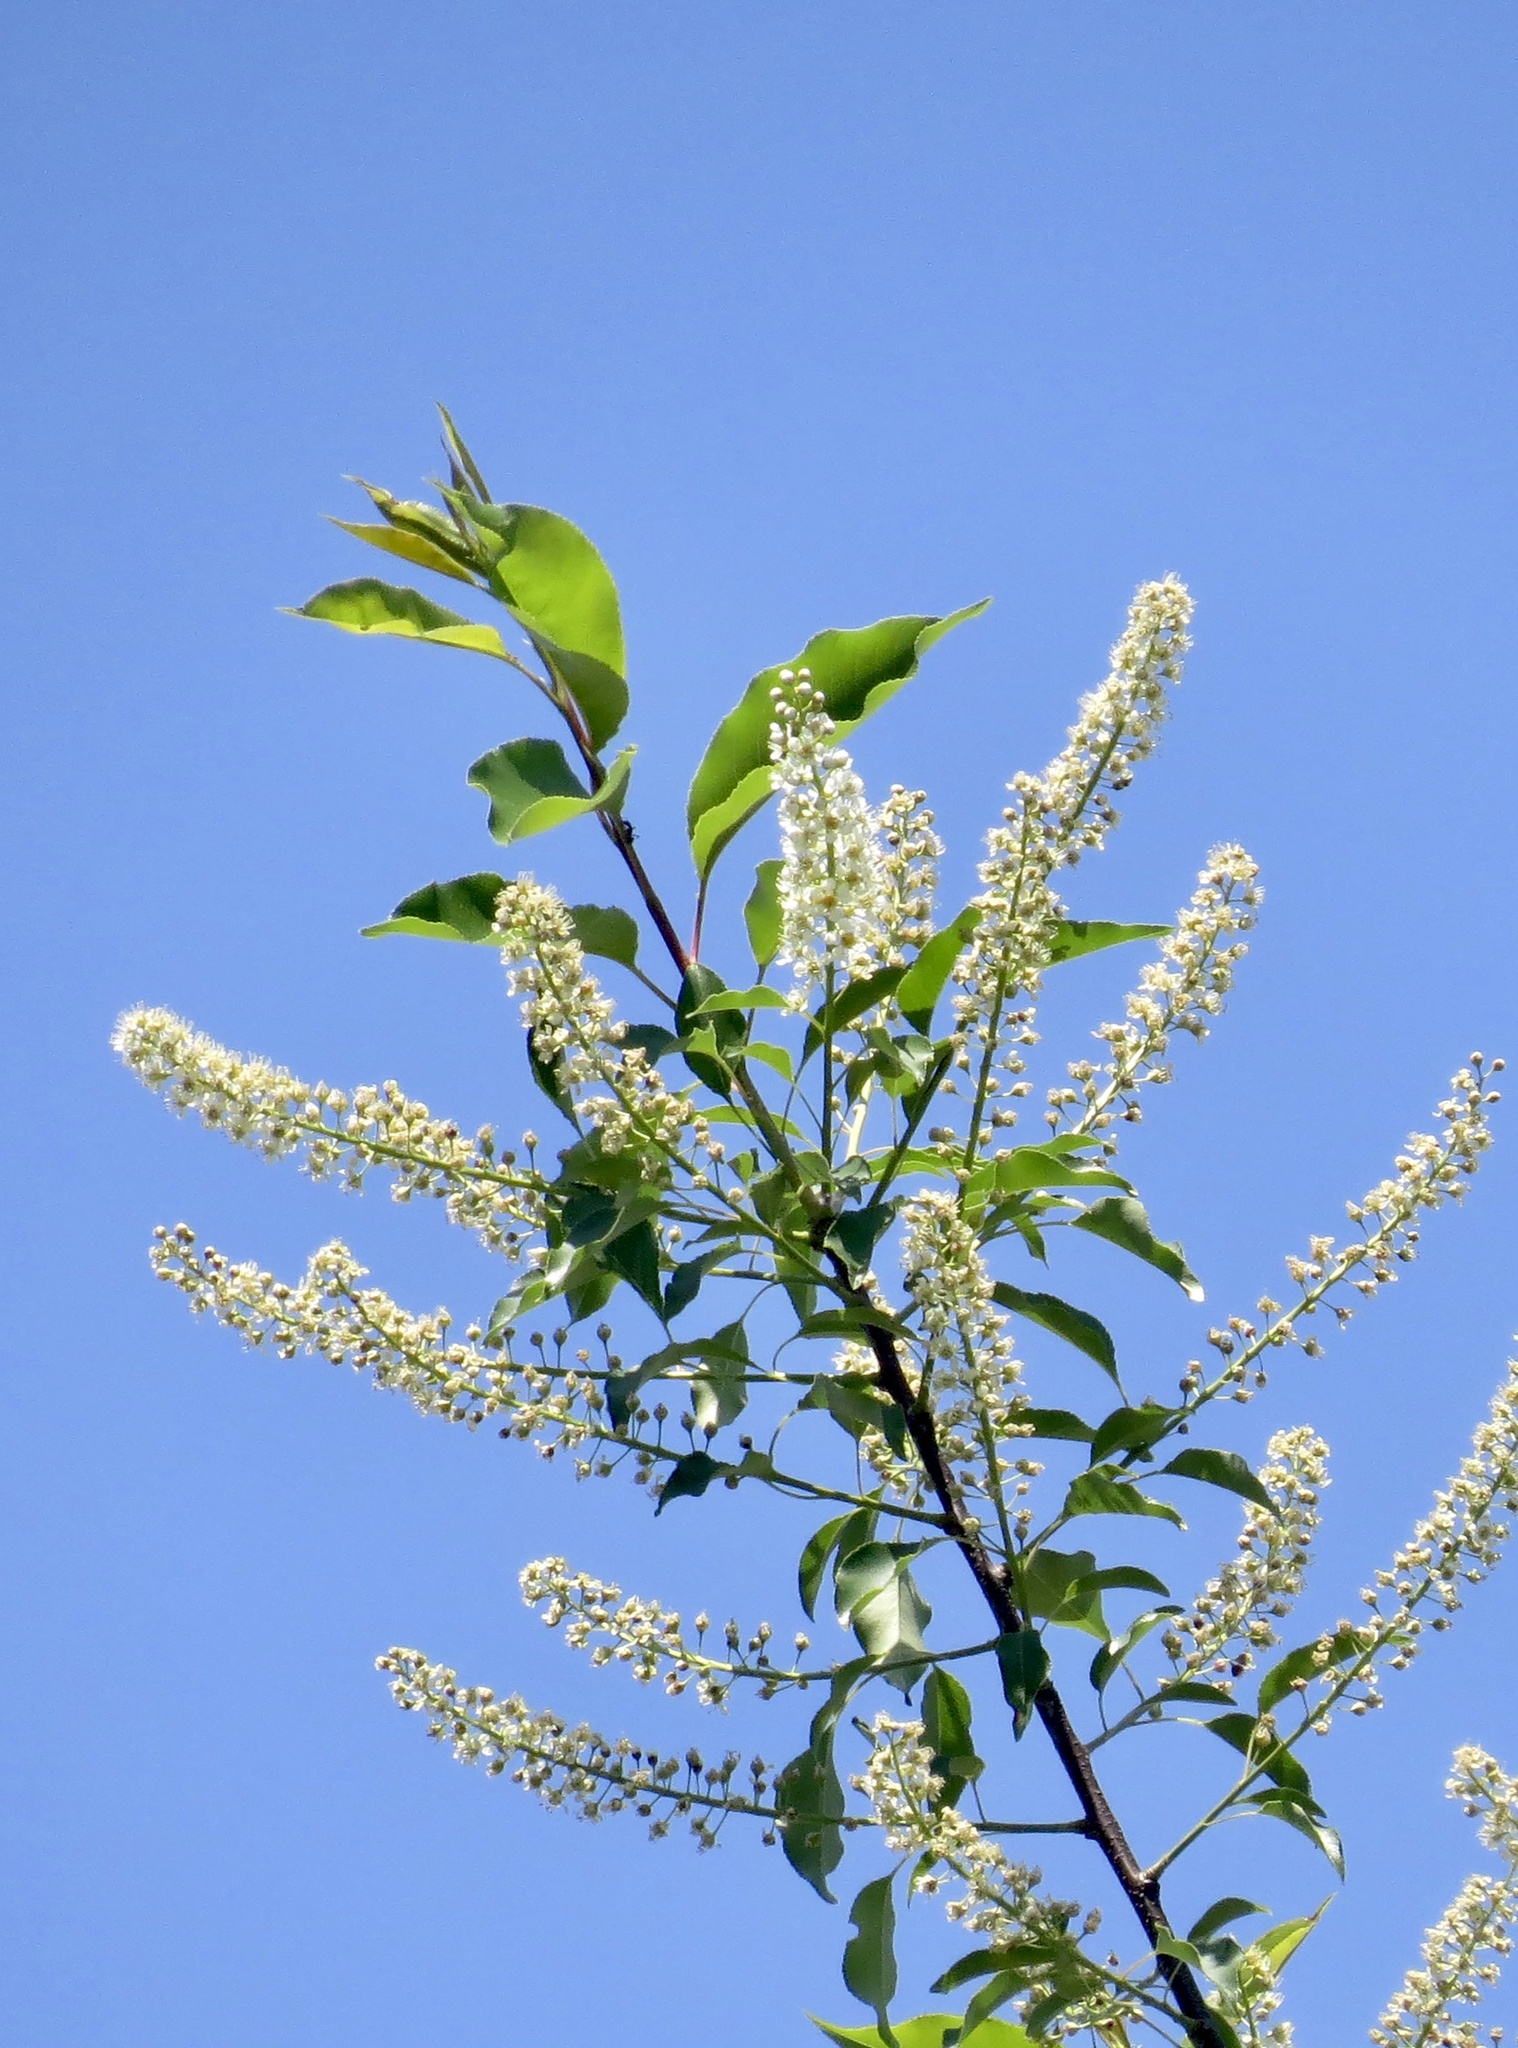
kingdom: Plantae
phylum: Tracheophyta
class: Magnoliopsida
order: Rosales
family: Rosaceae
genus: Prunus
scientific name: Prunus serotina
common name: Black cherry
